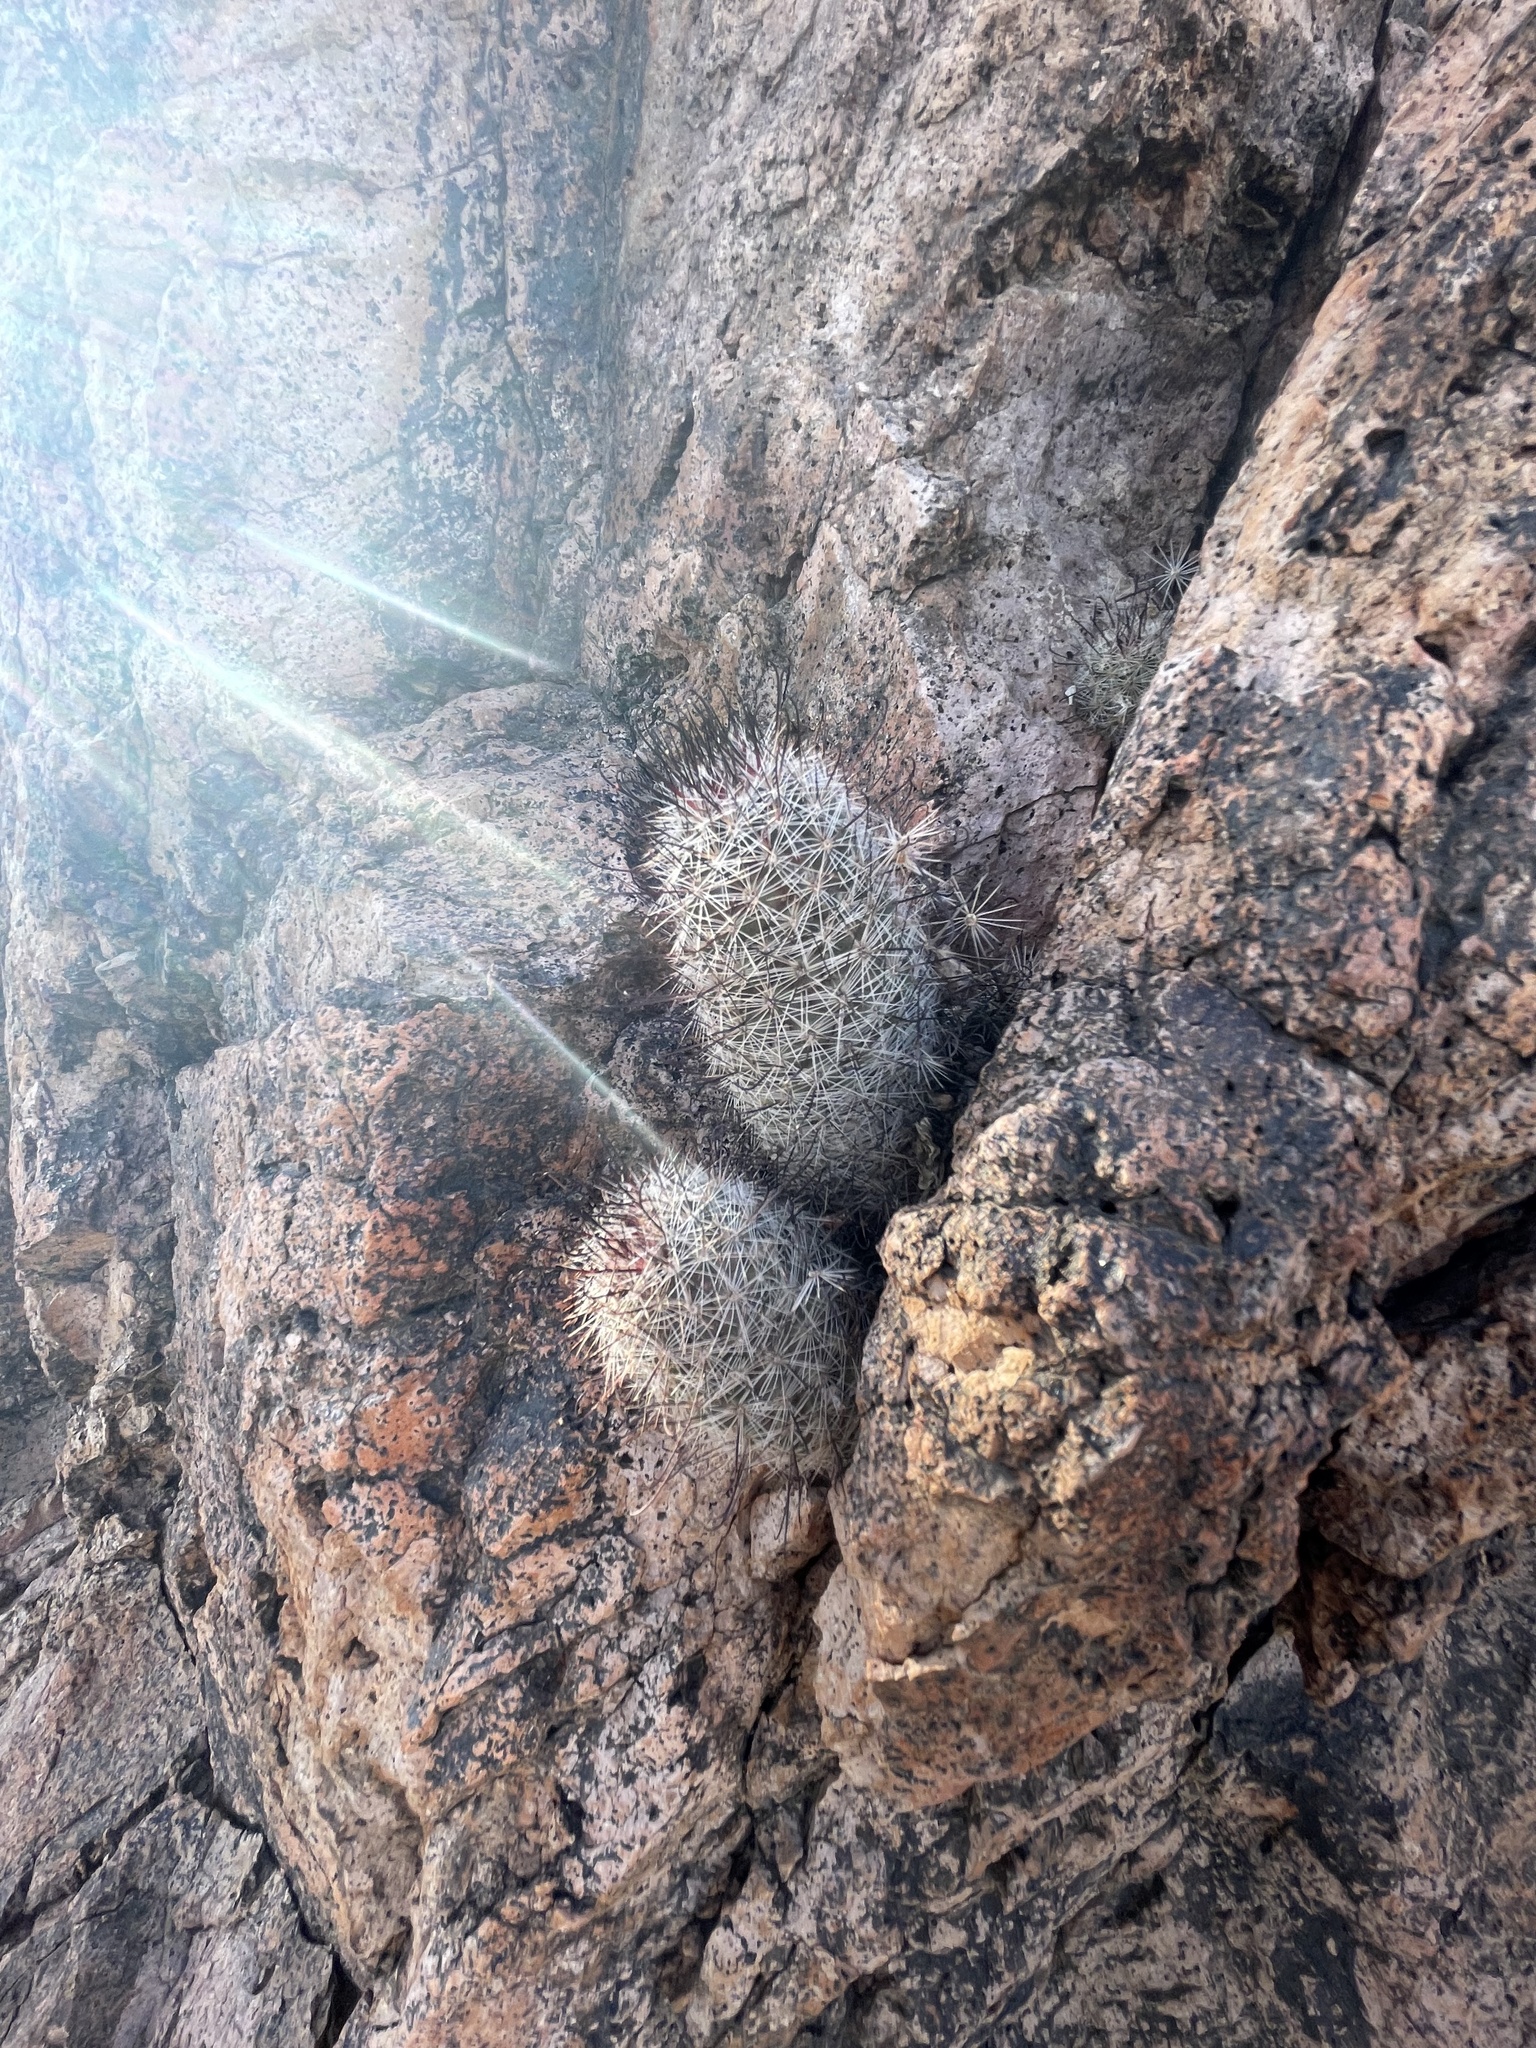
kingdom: Plantae
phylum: Tracheophyta
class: Magnoliopsida
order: Caryophyllales
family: Cactaceae
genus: Cochemiea
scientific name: Cochemiea grahamii
